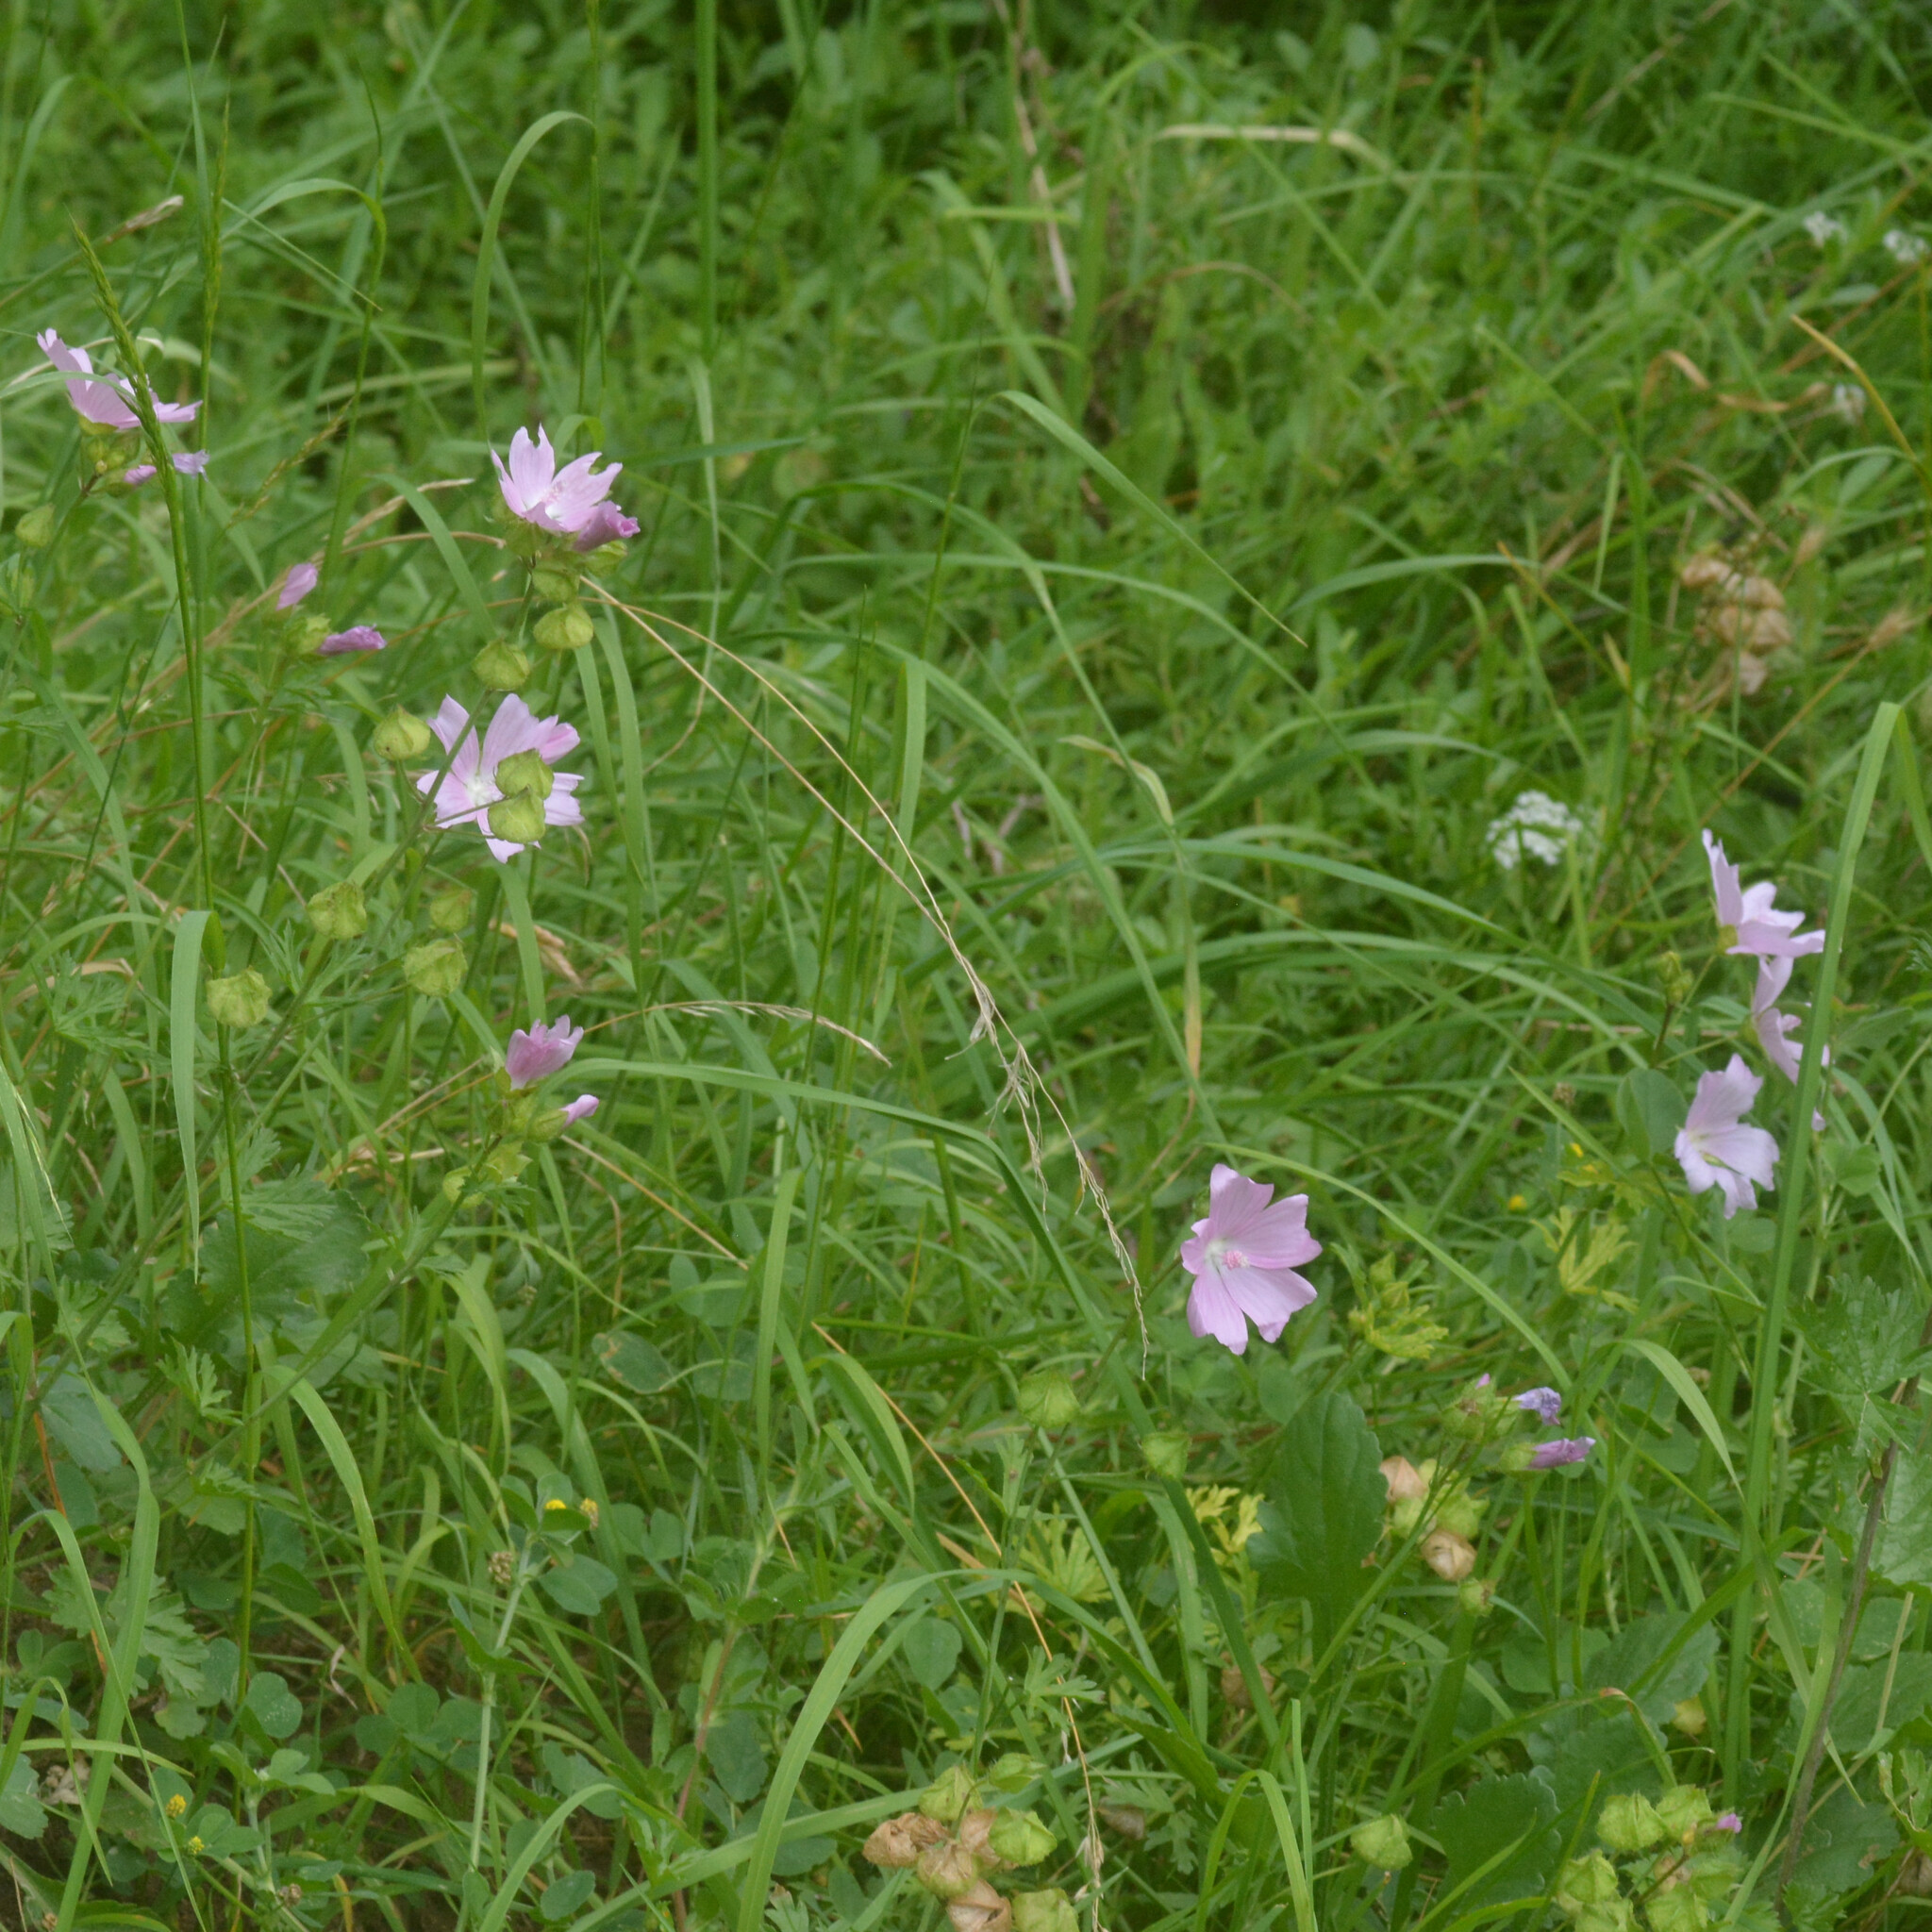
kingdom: Plantae
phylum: Tracheophyta
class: Magnoliopsida
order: Malvales
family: Malvaceae
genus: Malva
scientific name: Malva moschata
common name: Musk mallow
